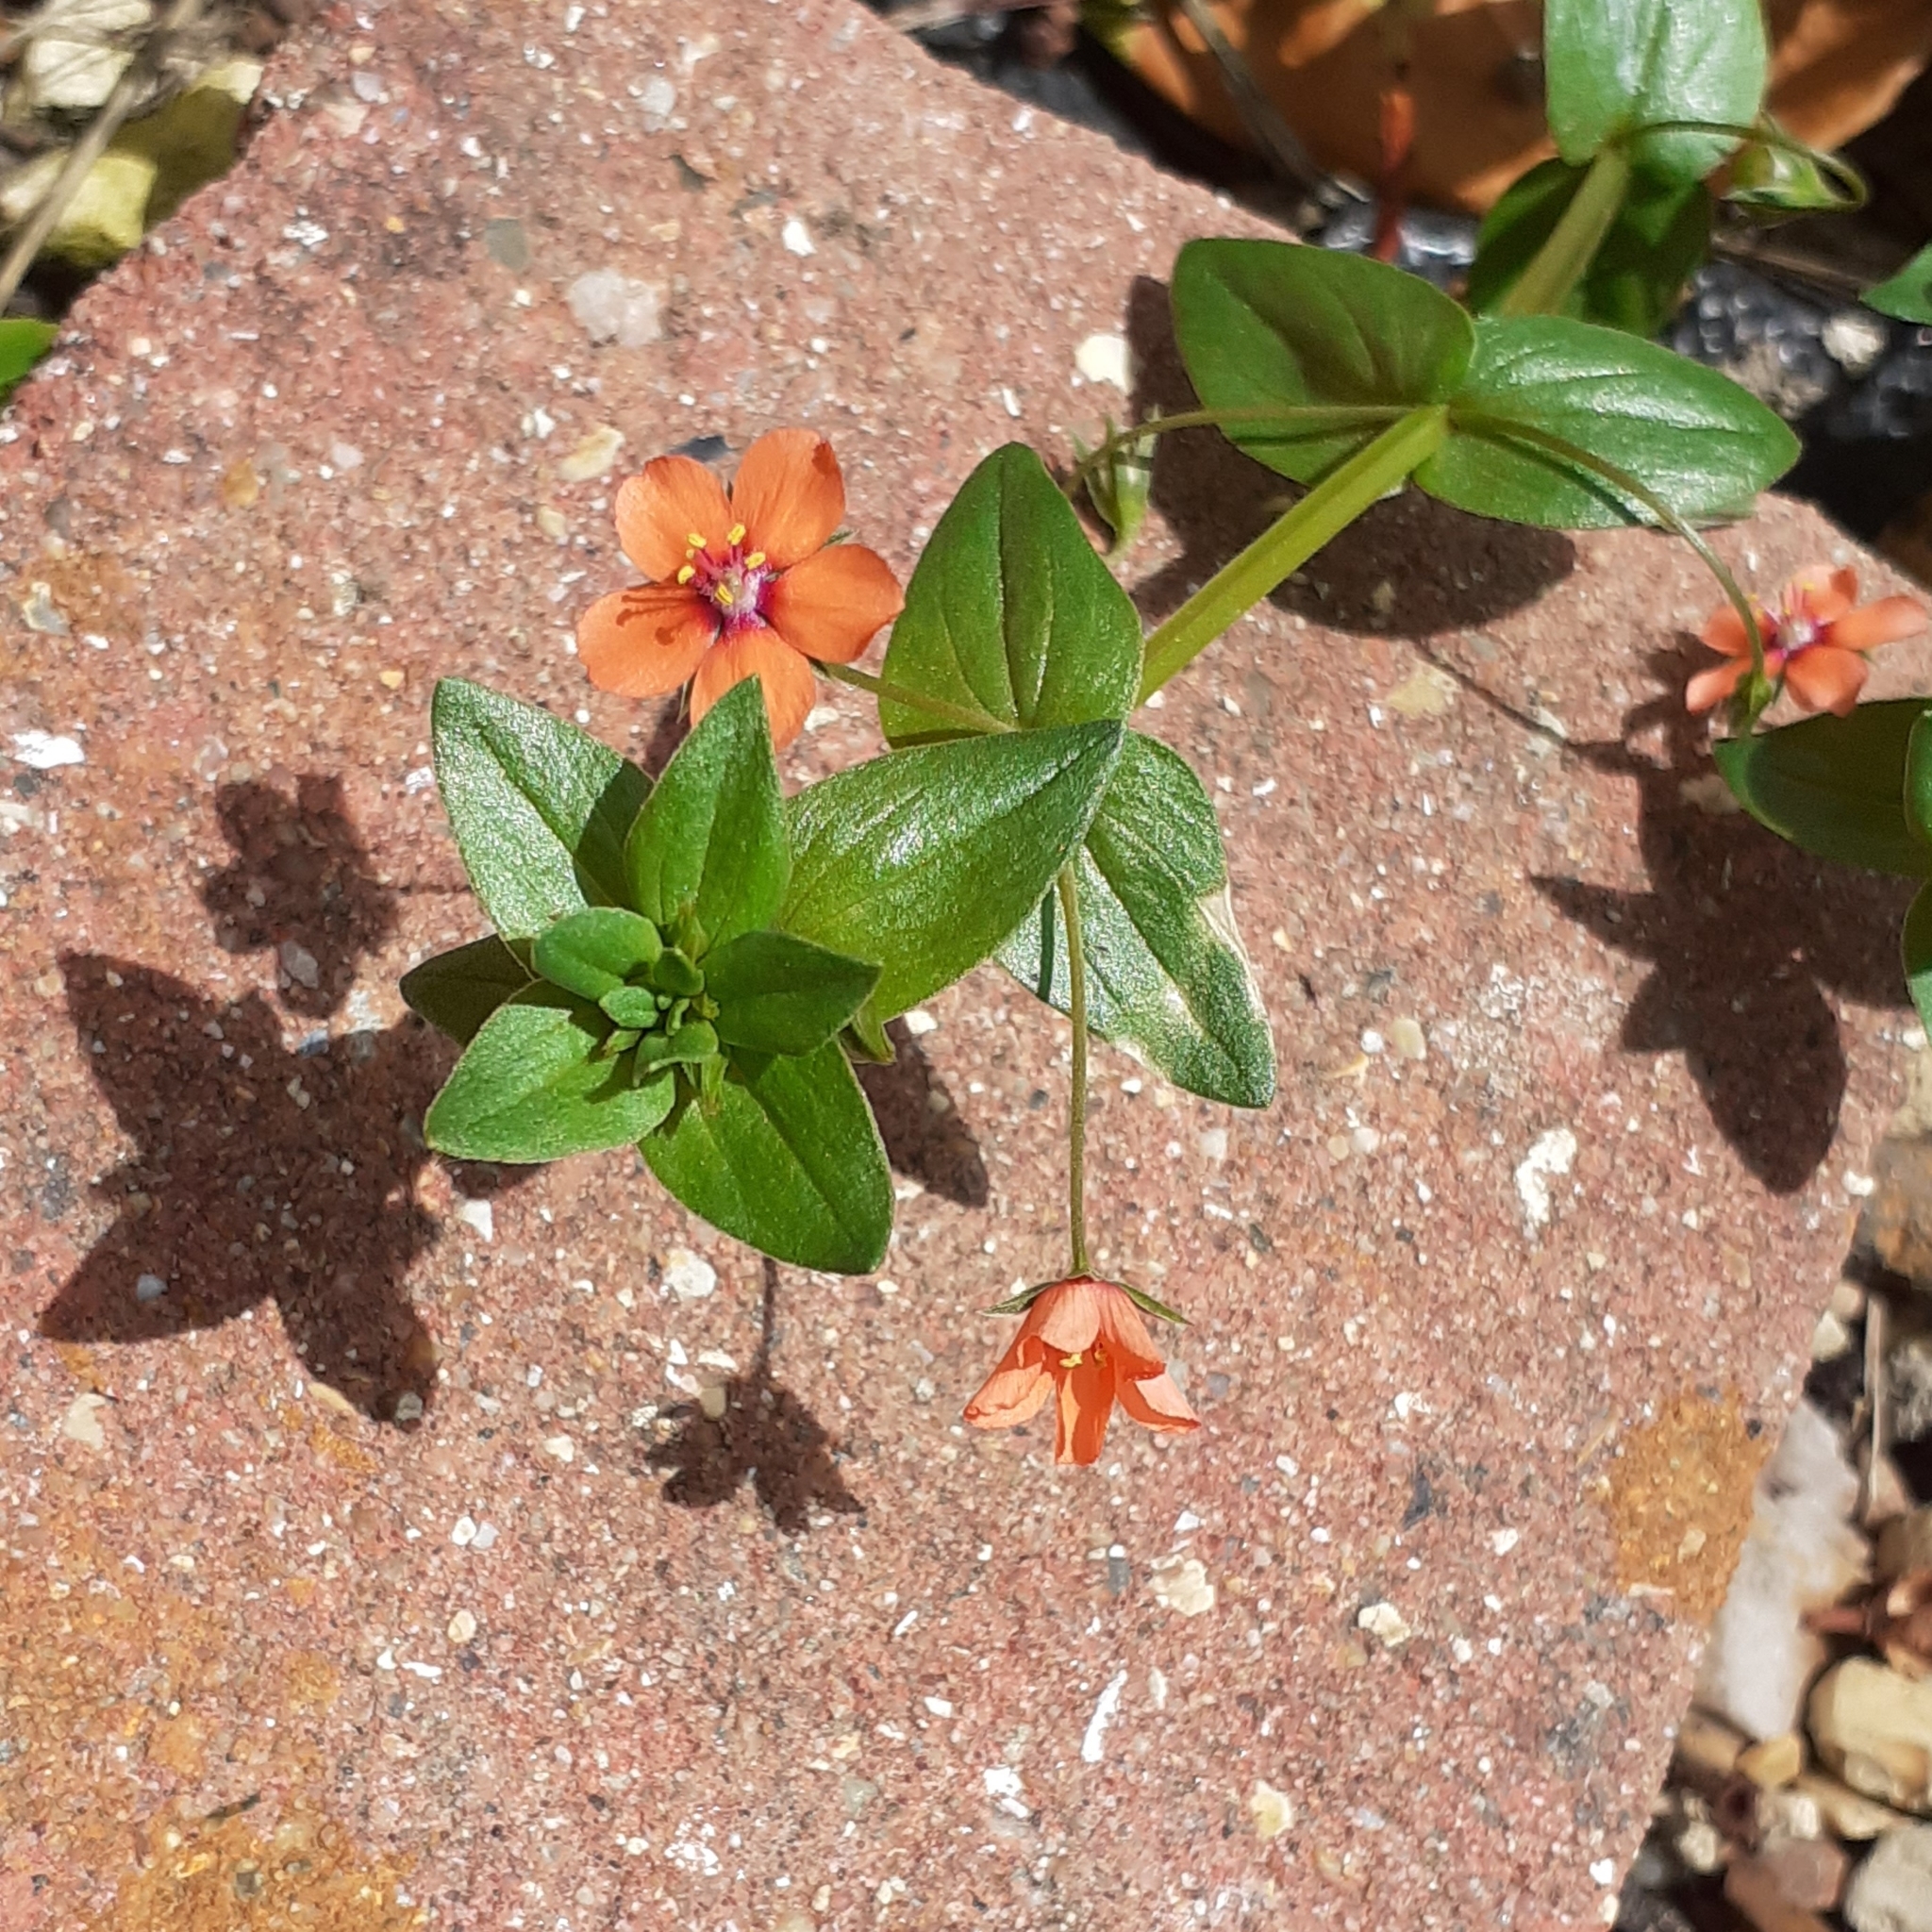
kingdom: Plantae
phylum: Tracheophyta
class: Magnoliopsida
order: Ericales
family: Primulaceae
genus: Lysimachia
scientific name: Lysimachia arvensis
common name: Scarlet pimpernel
